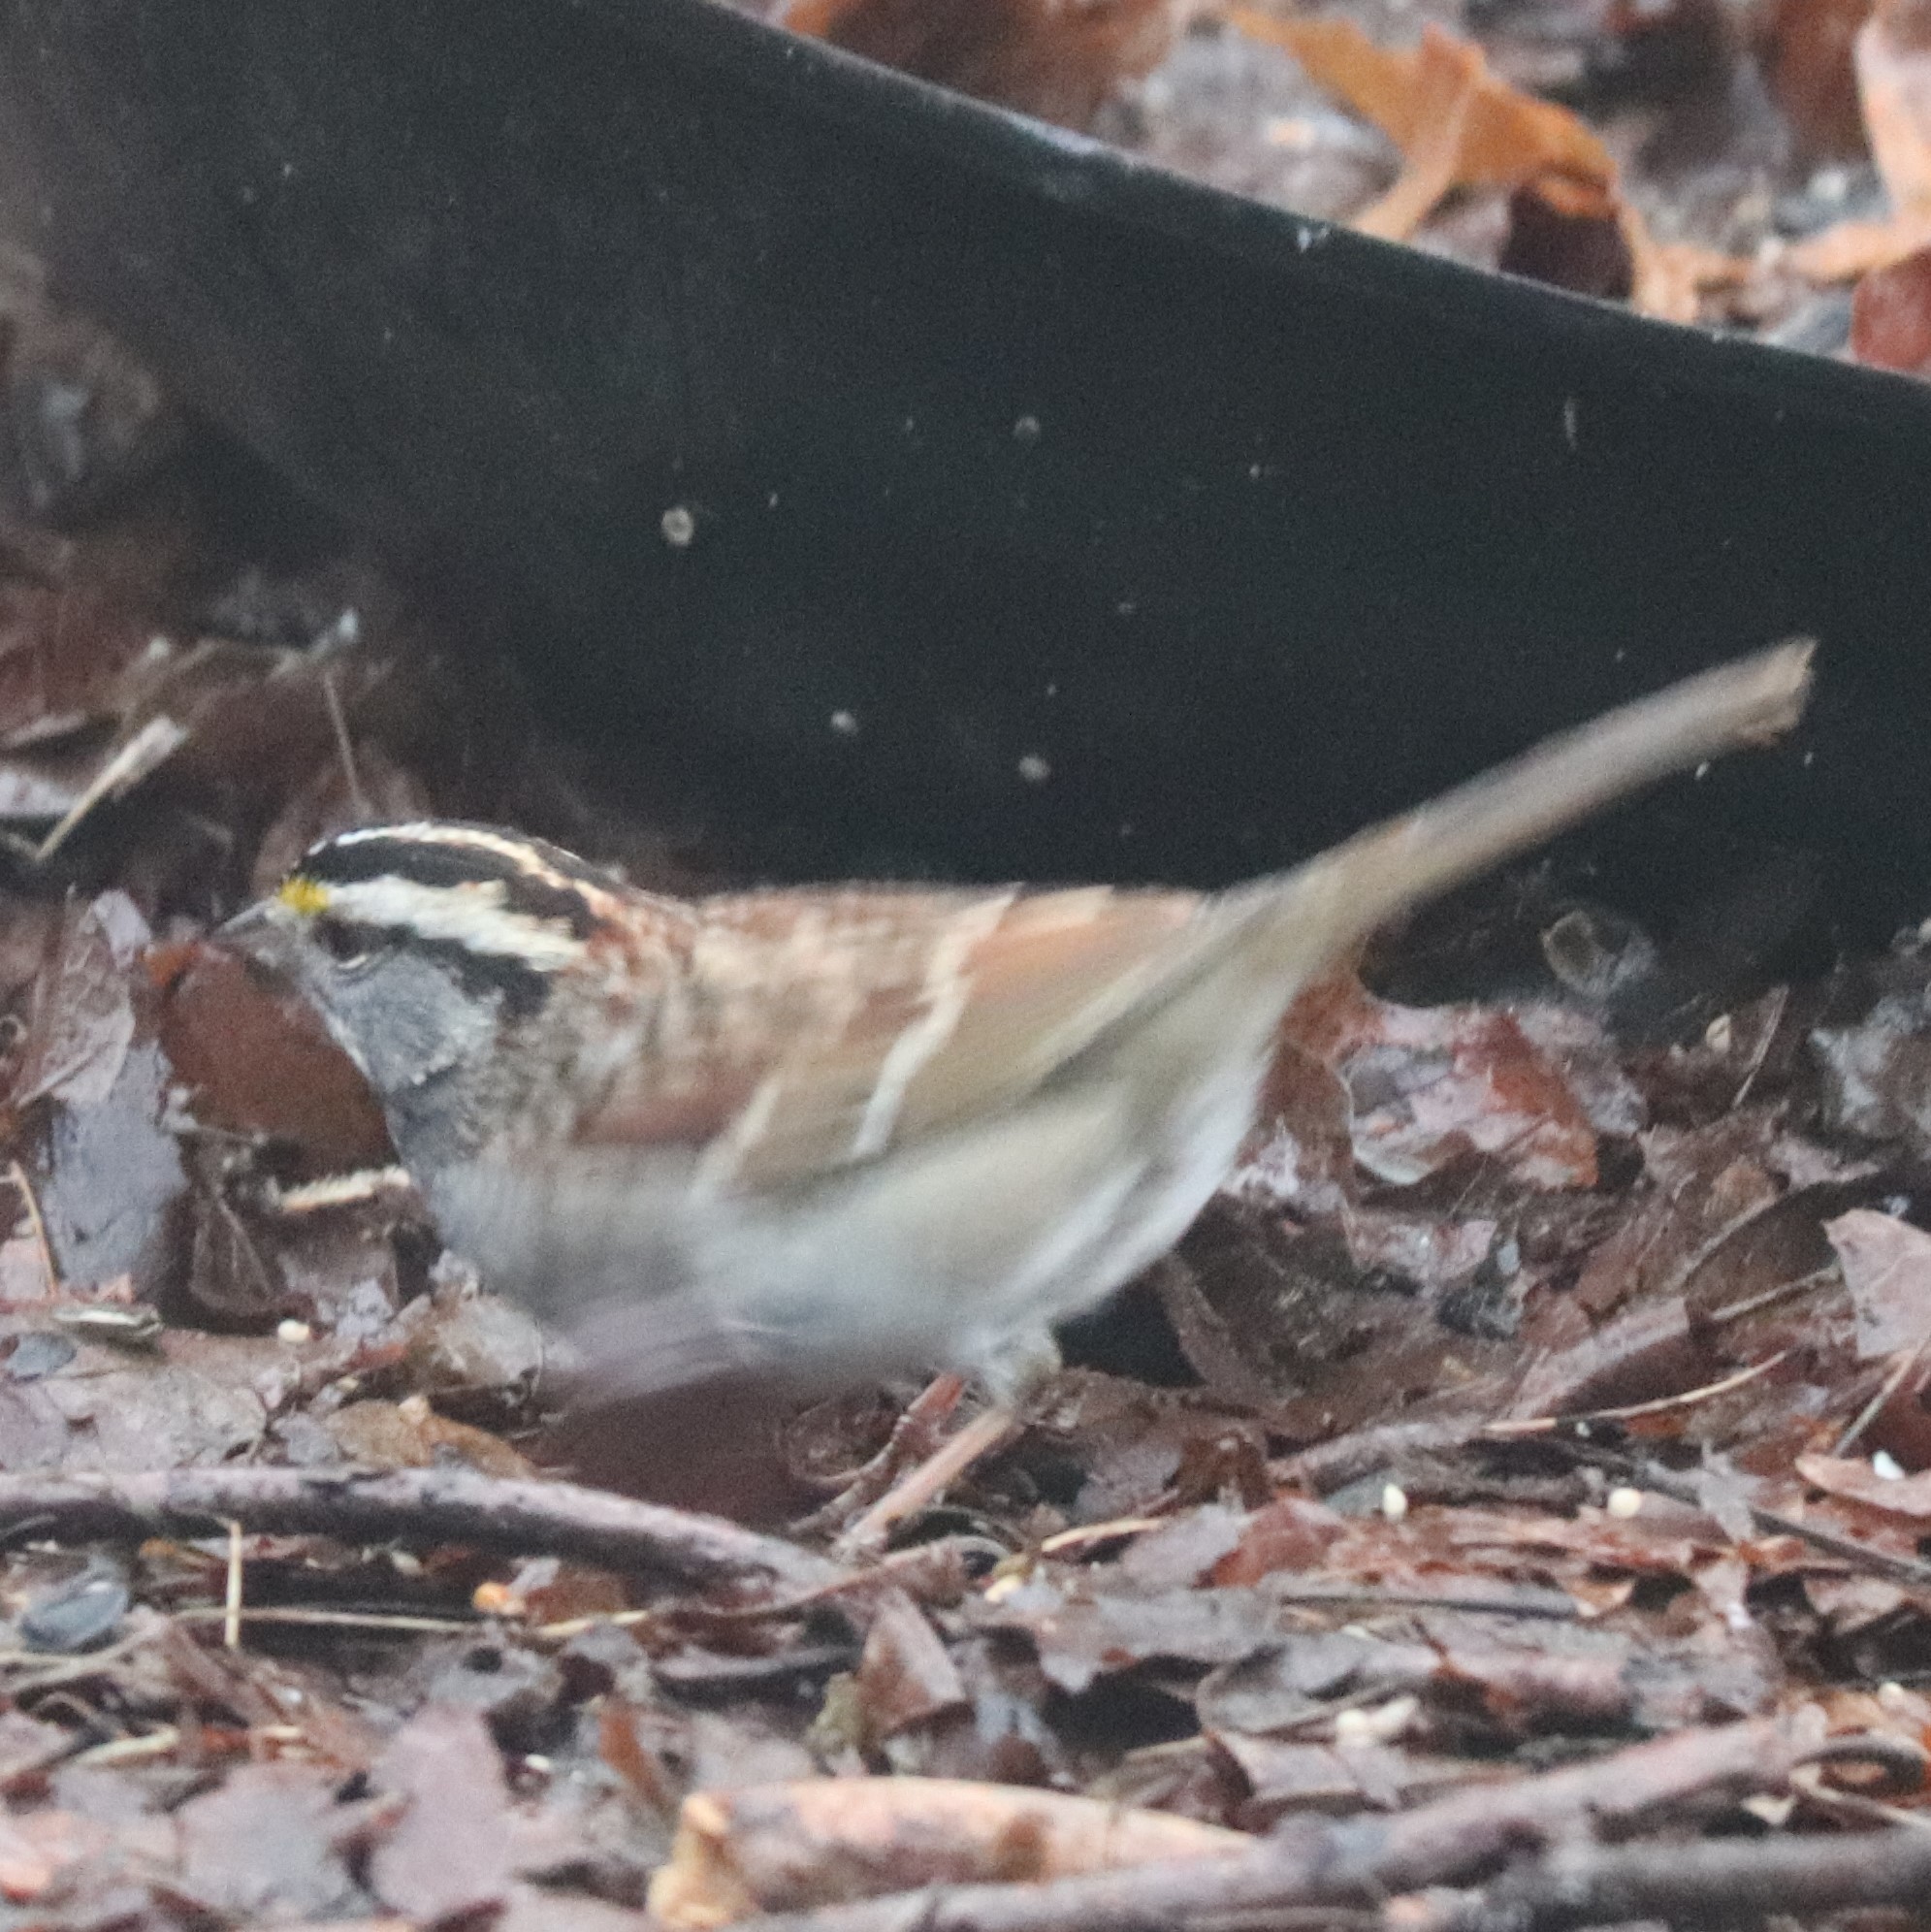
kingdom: Animalia
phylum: Chordata
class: Aves
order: Passeriformes
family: Passerellidae
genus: Zonotrichia
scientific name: Zonotrichia albicollis
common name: White-throated sparrow
